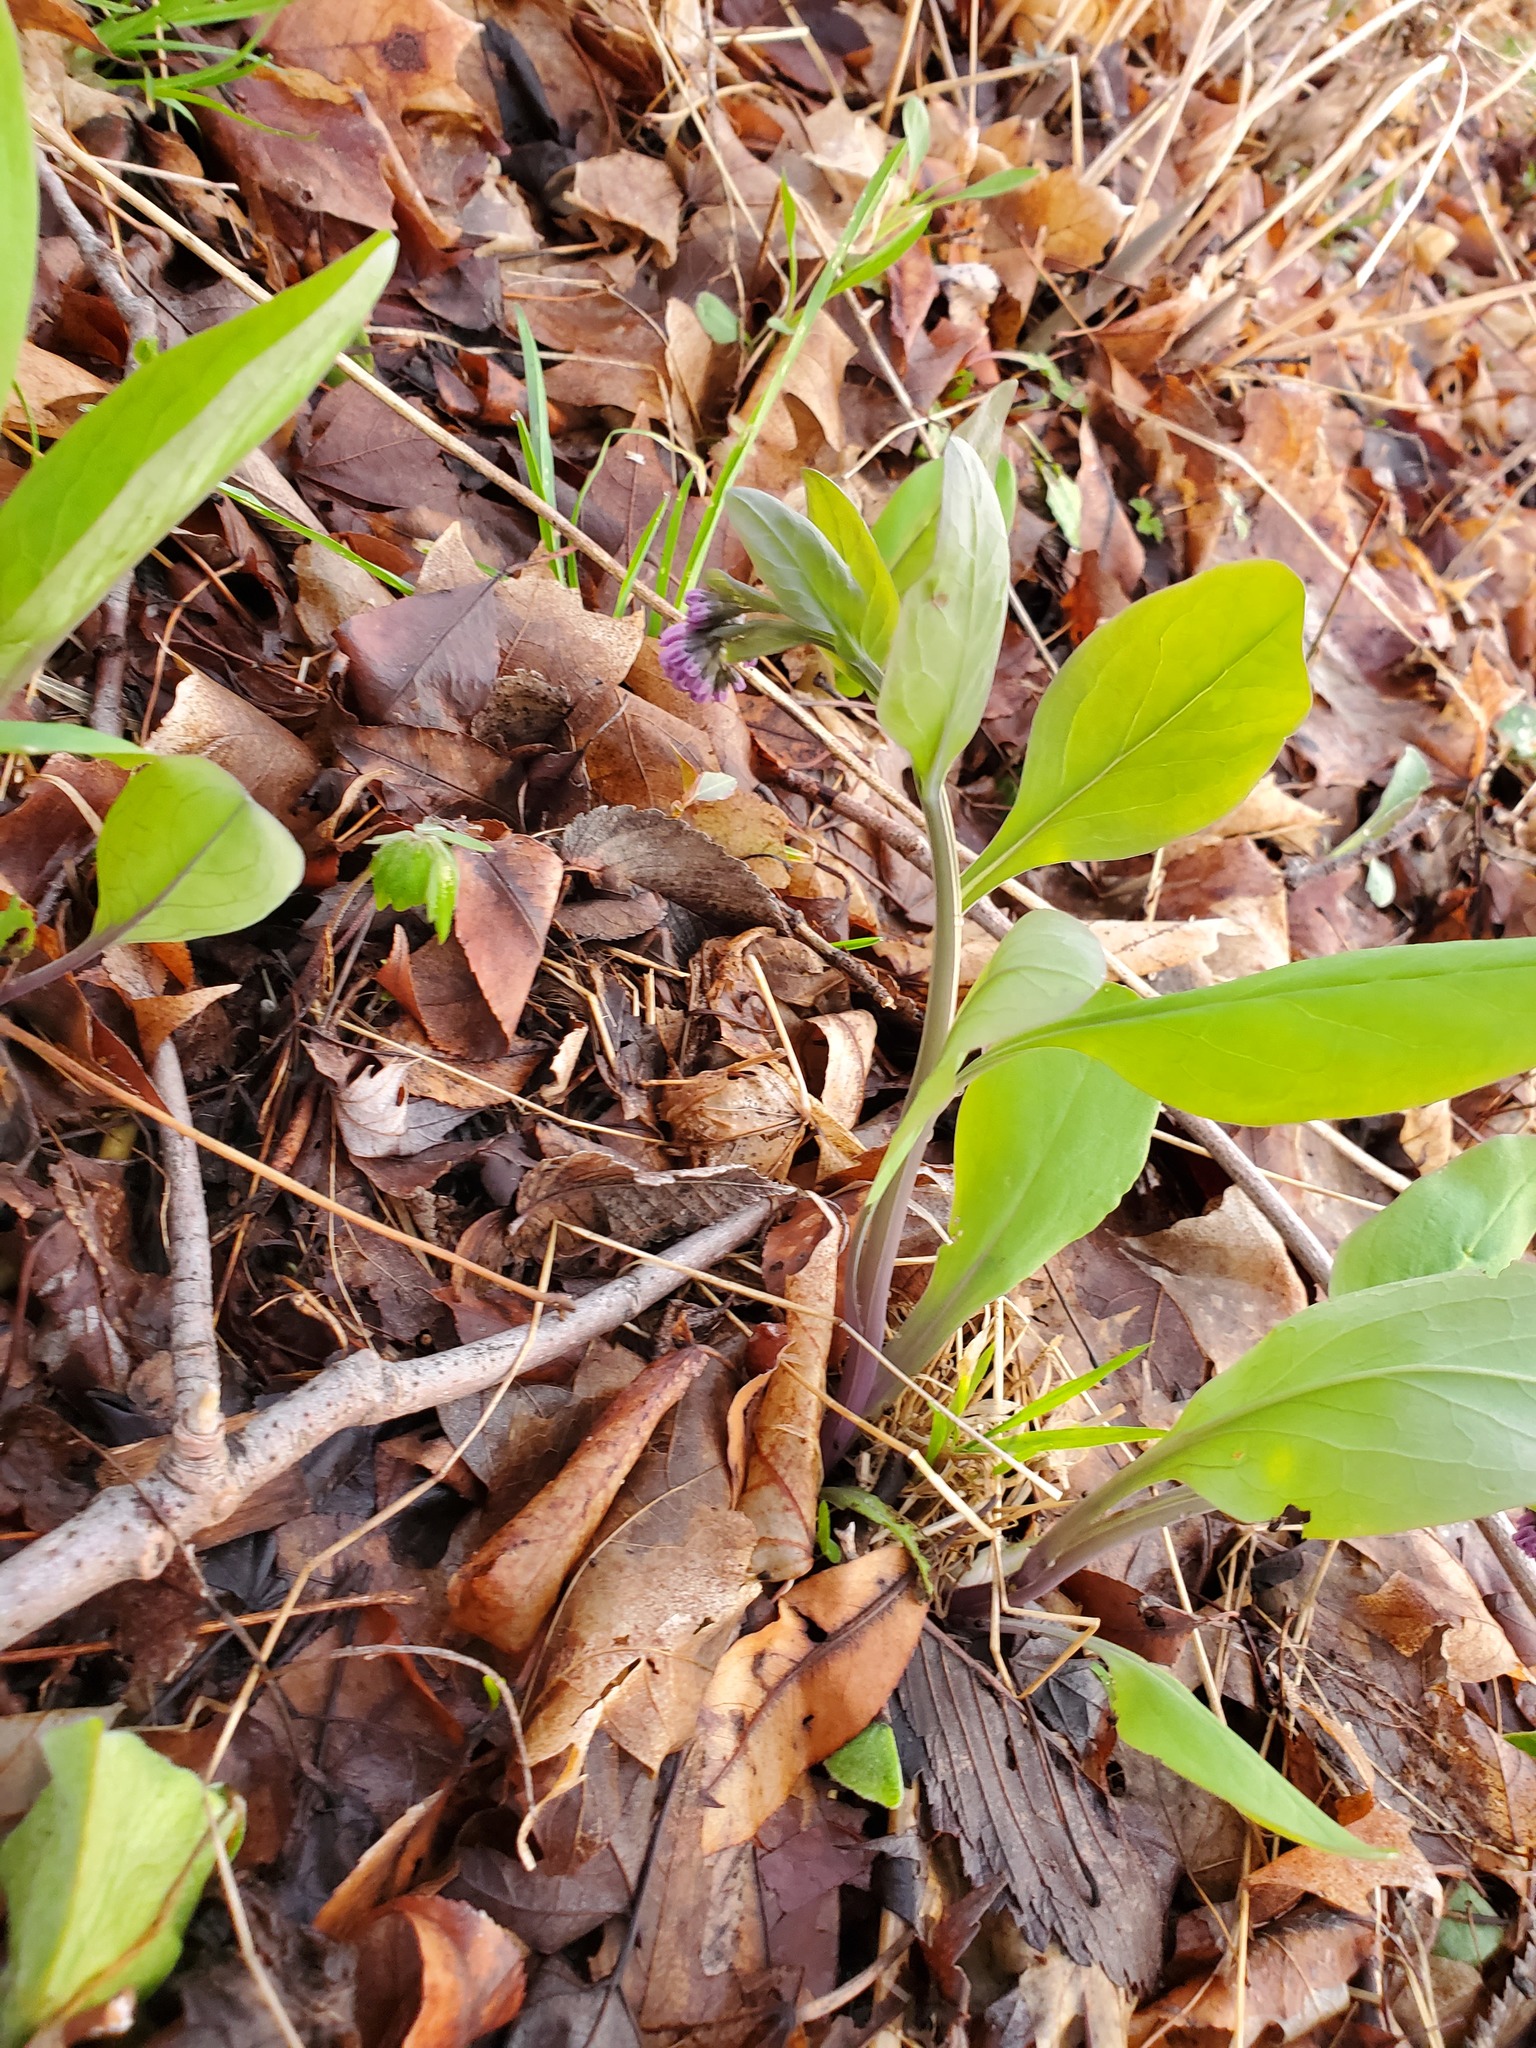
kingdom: Plantae
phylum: Tracheophyta
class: Magnoliopsida
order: Boraginales
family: Boraginaceae
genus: Mertensia
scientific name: Mertensia virginica
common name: Virginia bluebells
